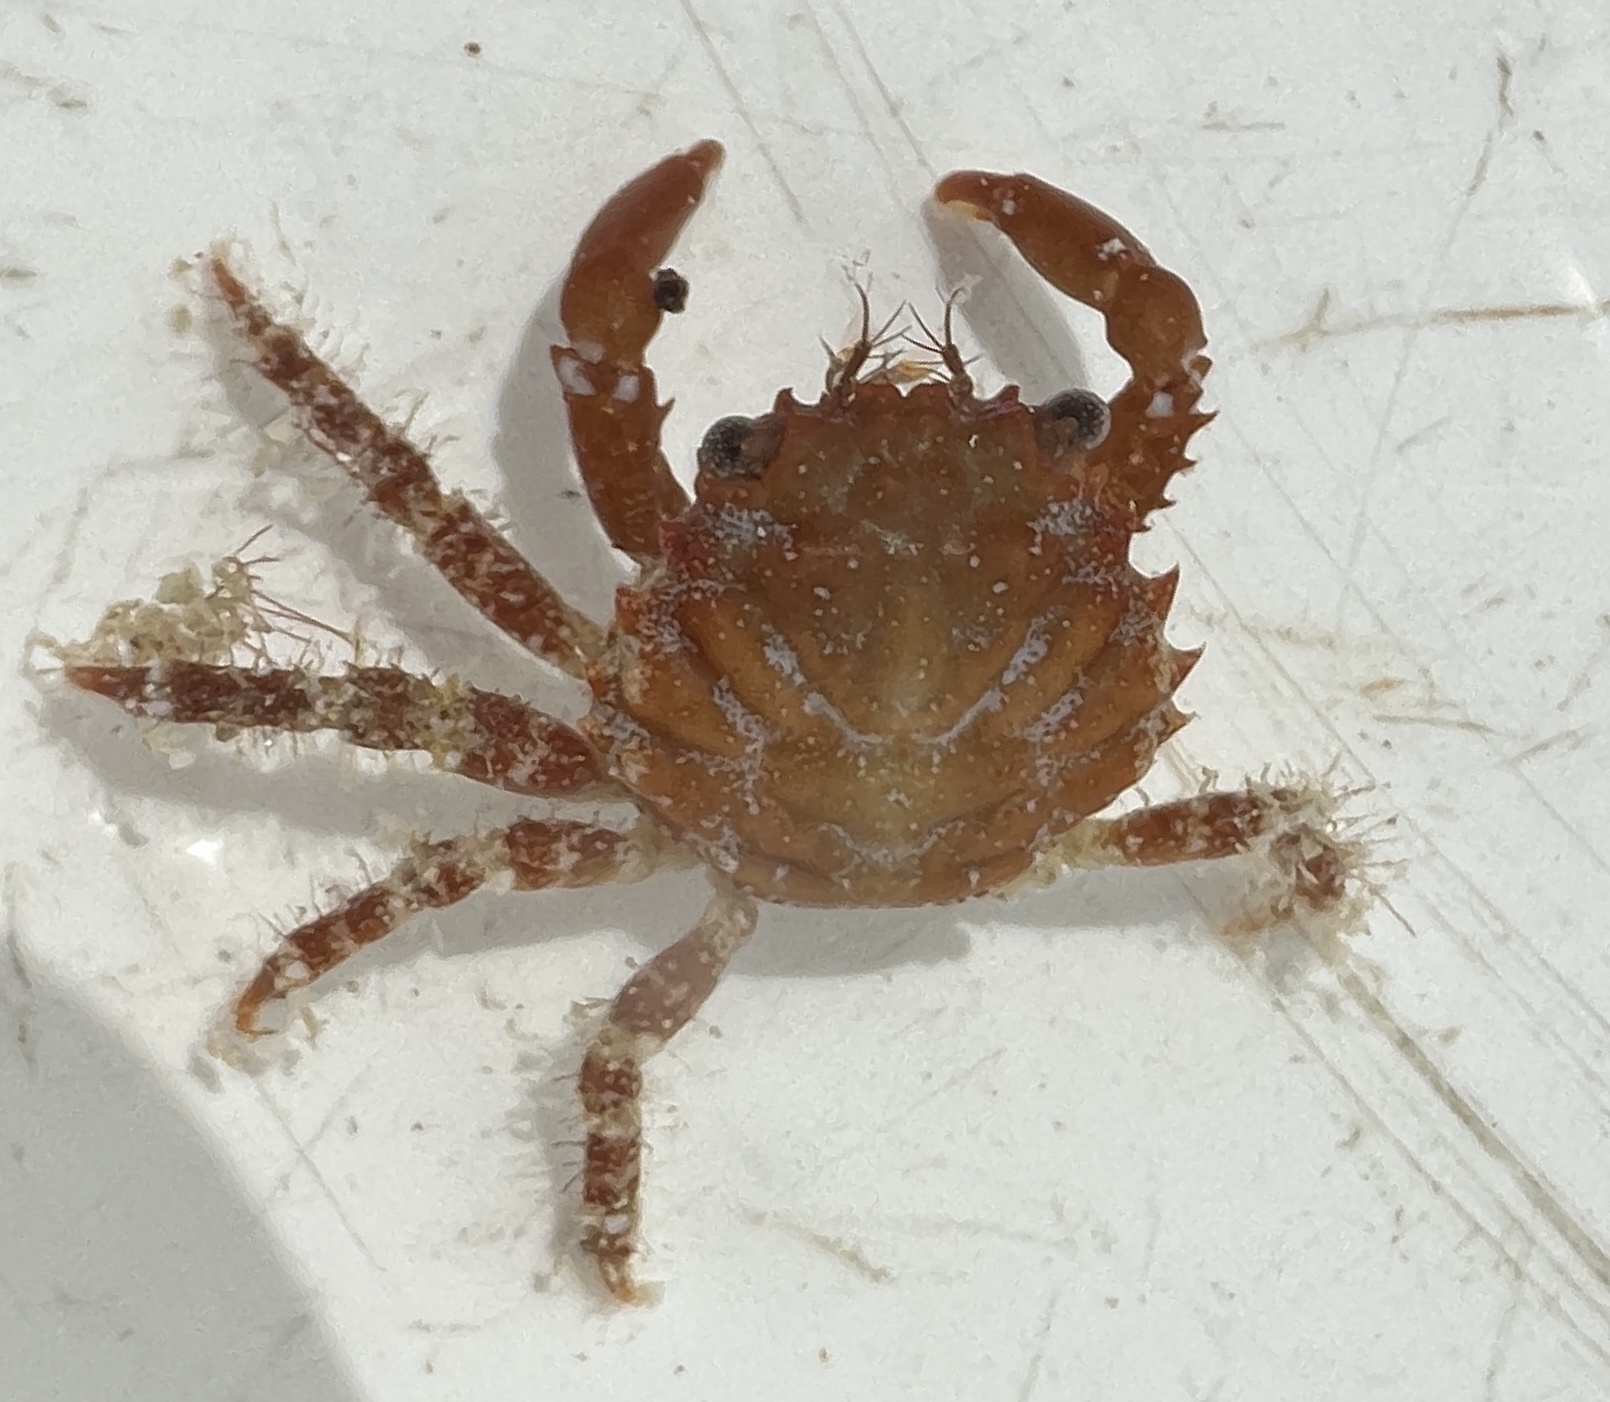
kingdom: Animalia
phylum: Arthropoda
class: Malacostraca
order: Decapoda
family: Mithracidae
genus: Mithraculus
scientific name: Mithraculus forceps
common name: Red-ridged clinging crab
